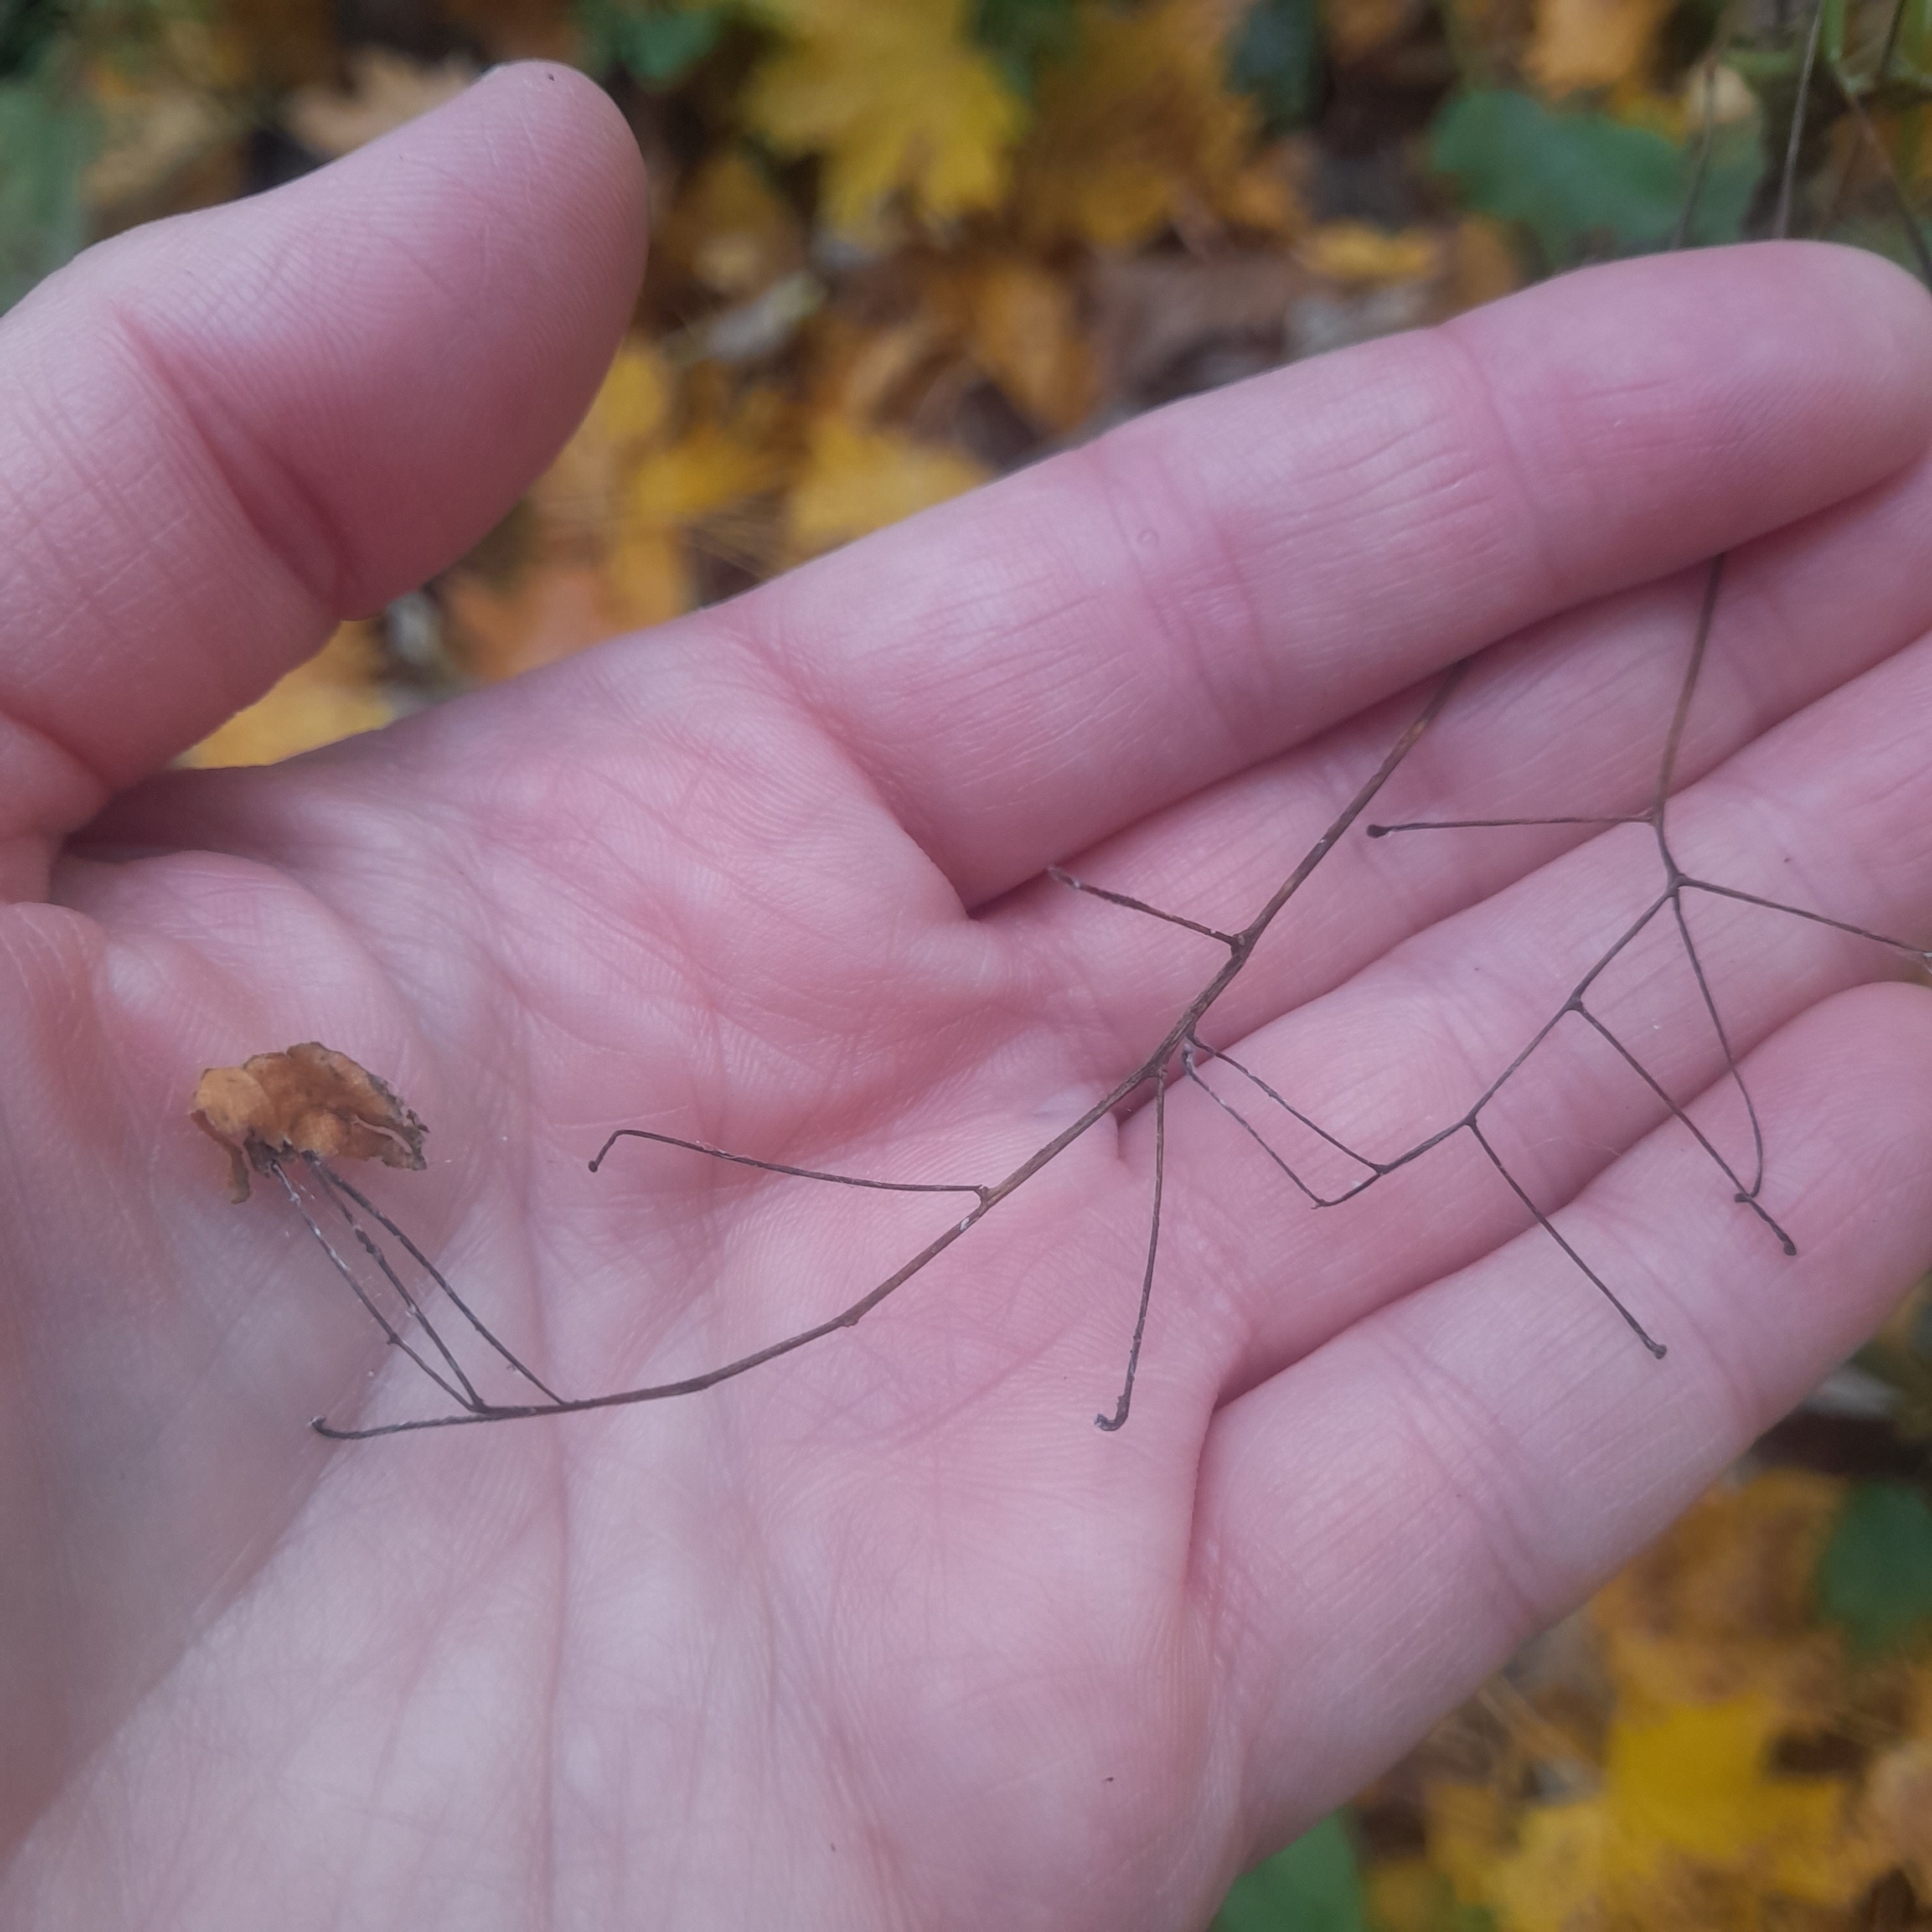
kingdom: Plantae
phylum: Tracheophyta
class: Magnoliopsida
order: Ericales
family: Balsaminaceae
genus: Impatiens
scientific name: Impatiens parviflora
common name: Small balsam
